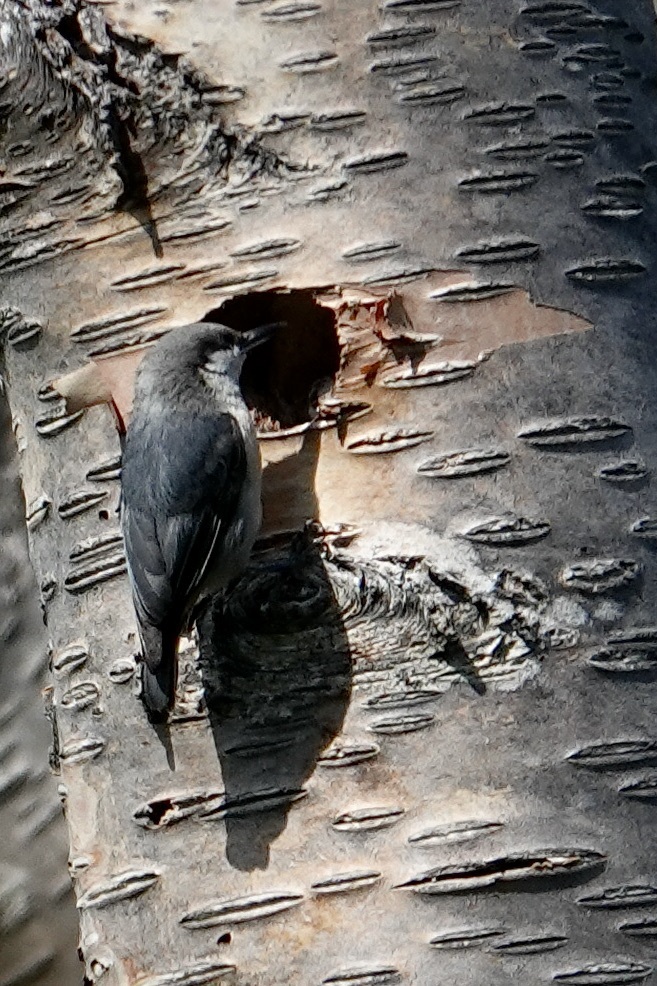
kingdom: Animalia
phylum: Chordata
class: Aves
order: Passeriformes
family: Sittidae
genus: Sitta
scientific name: Sitta pygmaea
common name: Pygmy nuthatch
